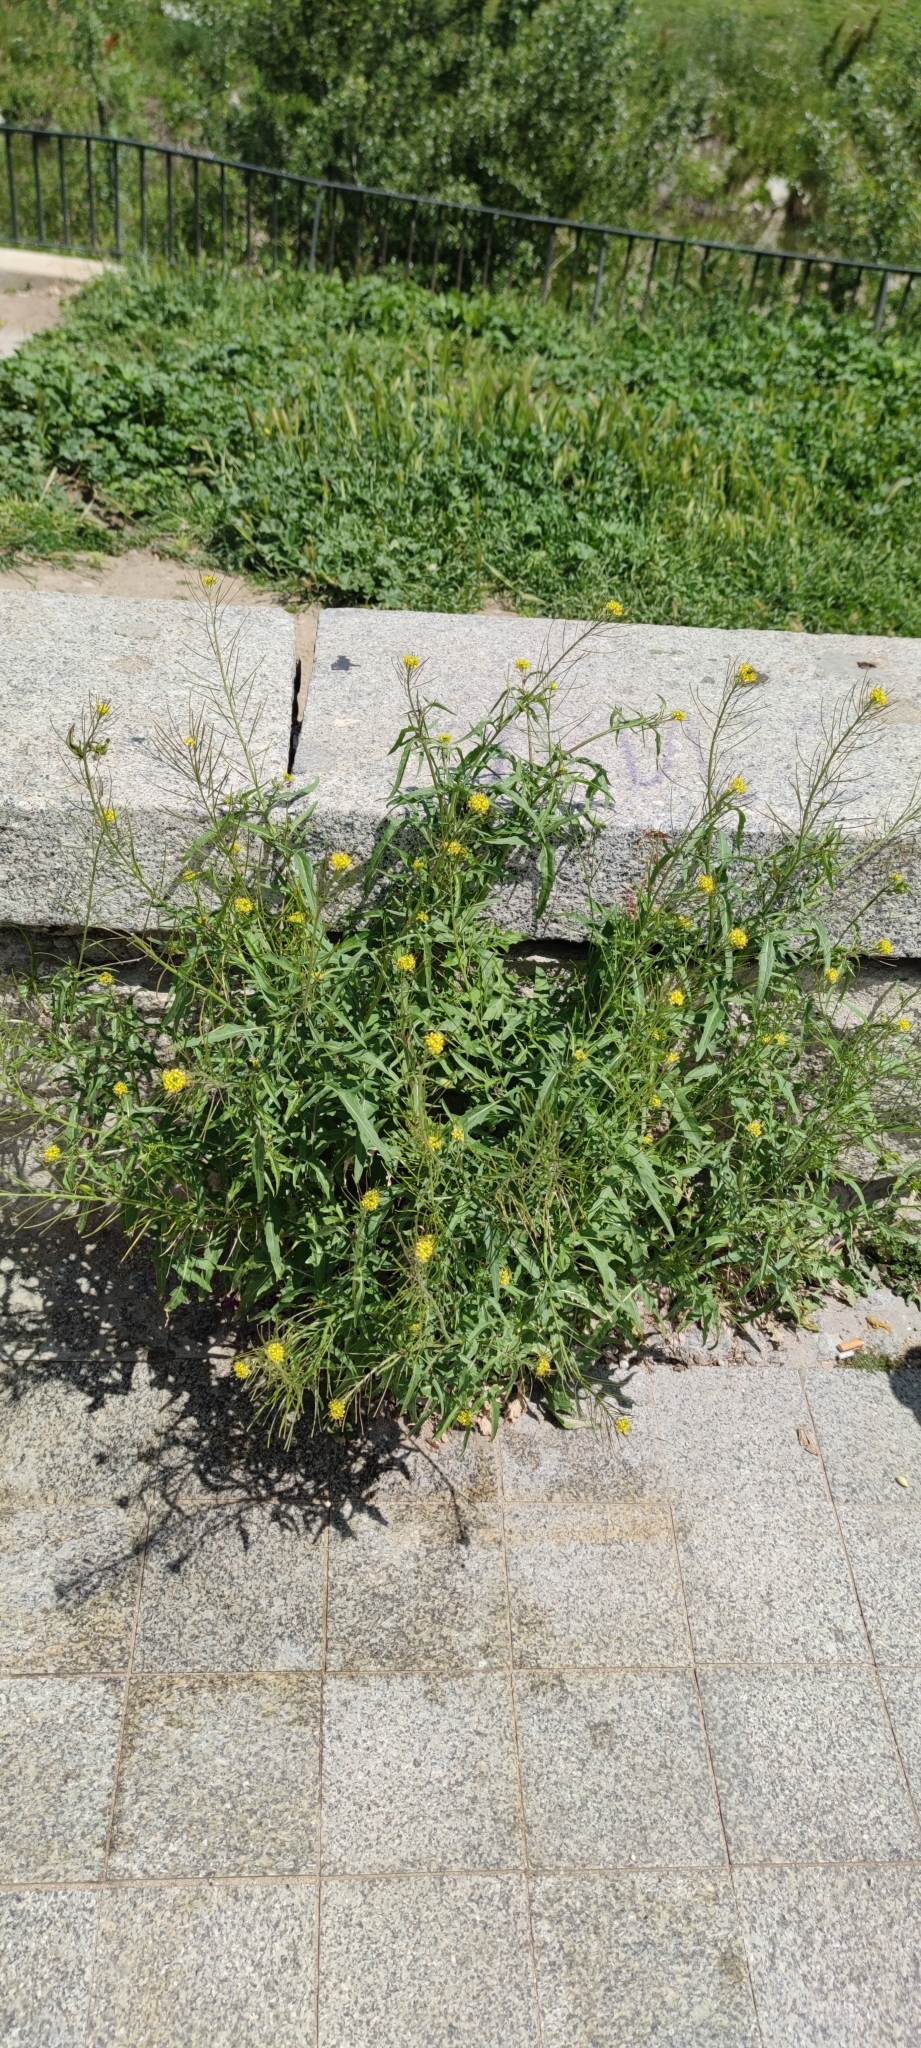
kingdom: Plantae
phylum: Tracheophyta
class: Magnoliopsida
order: Brassicales
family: Brassicaceae
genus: Sisymbrium
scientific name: Sisymbrium irio
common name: London rocket
